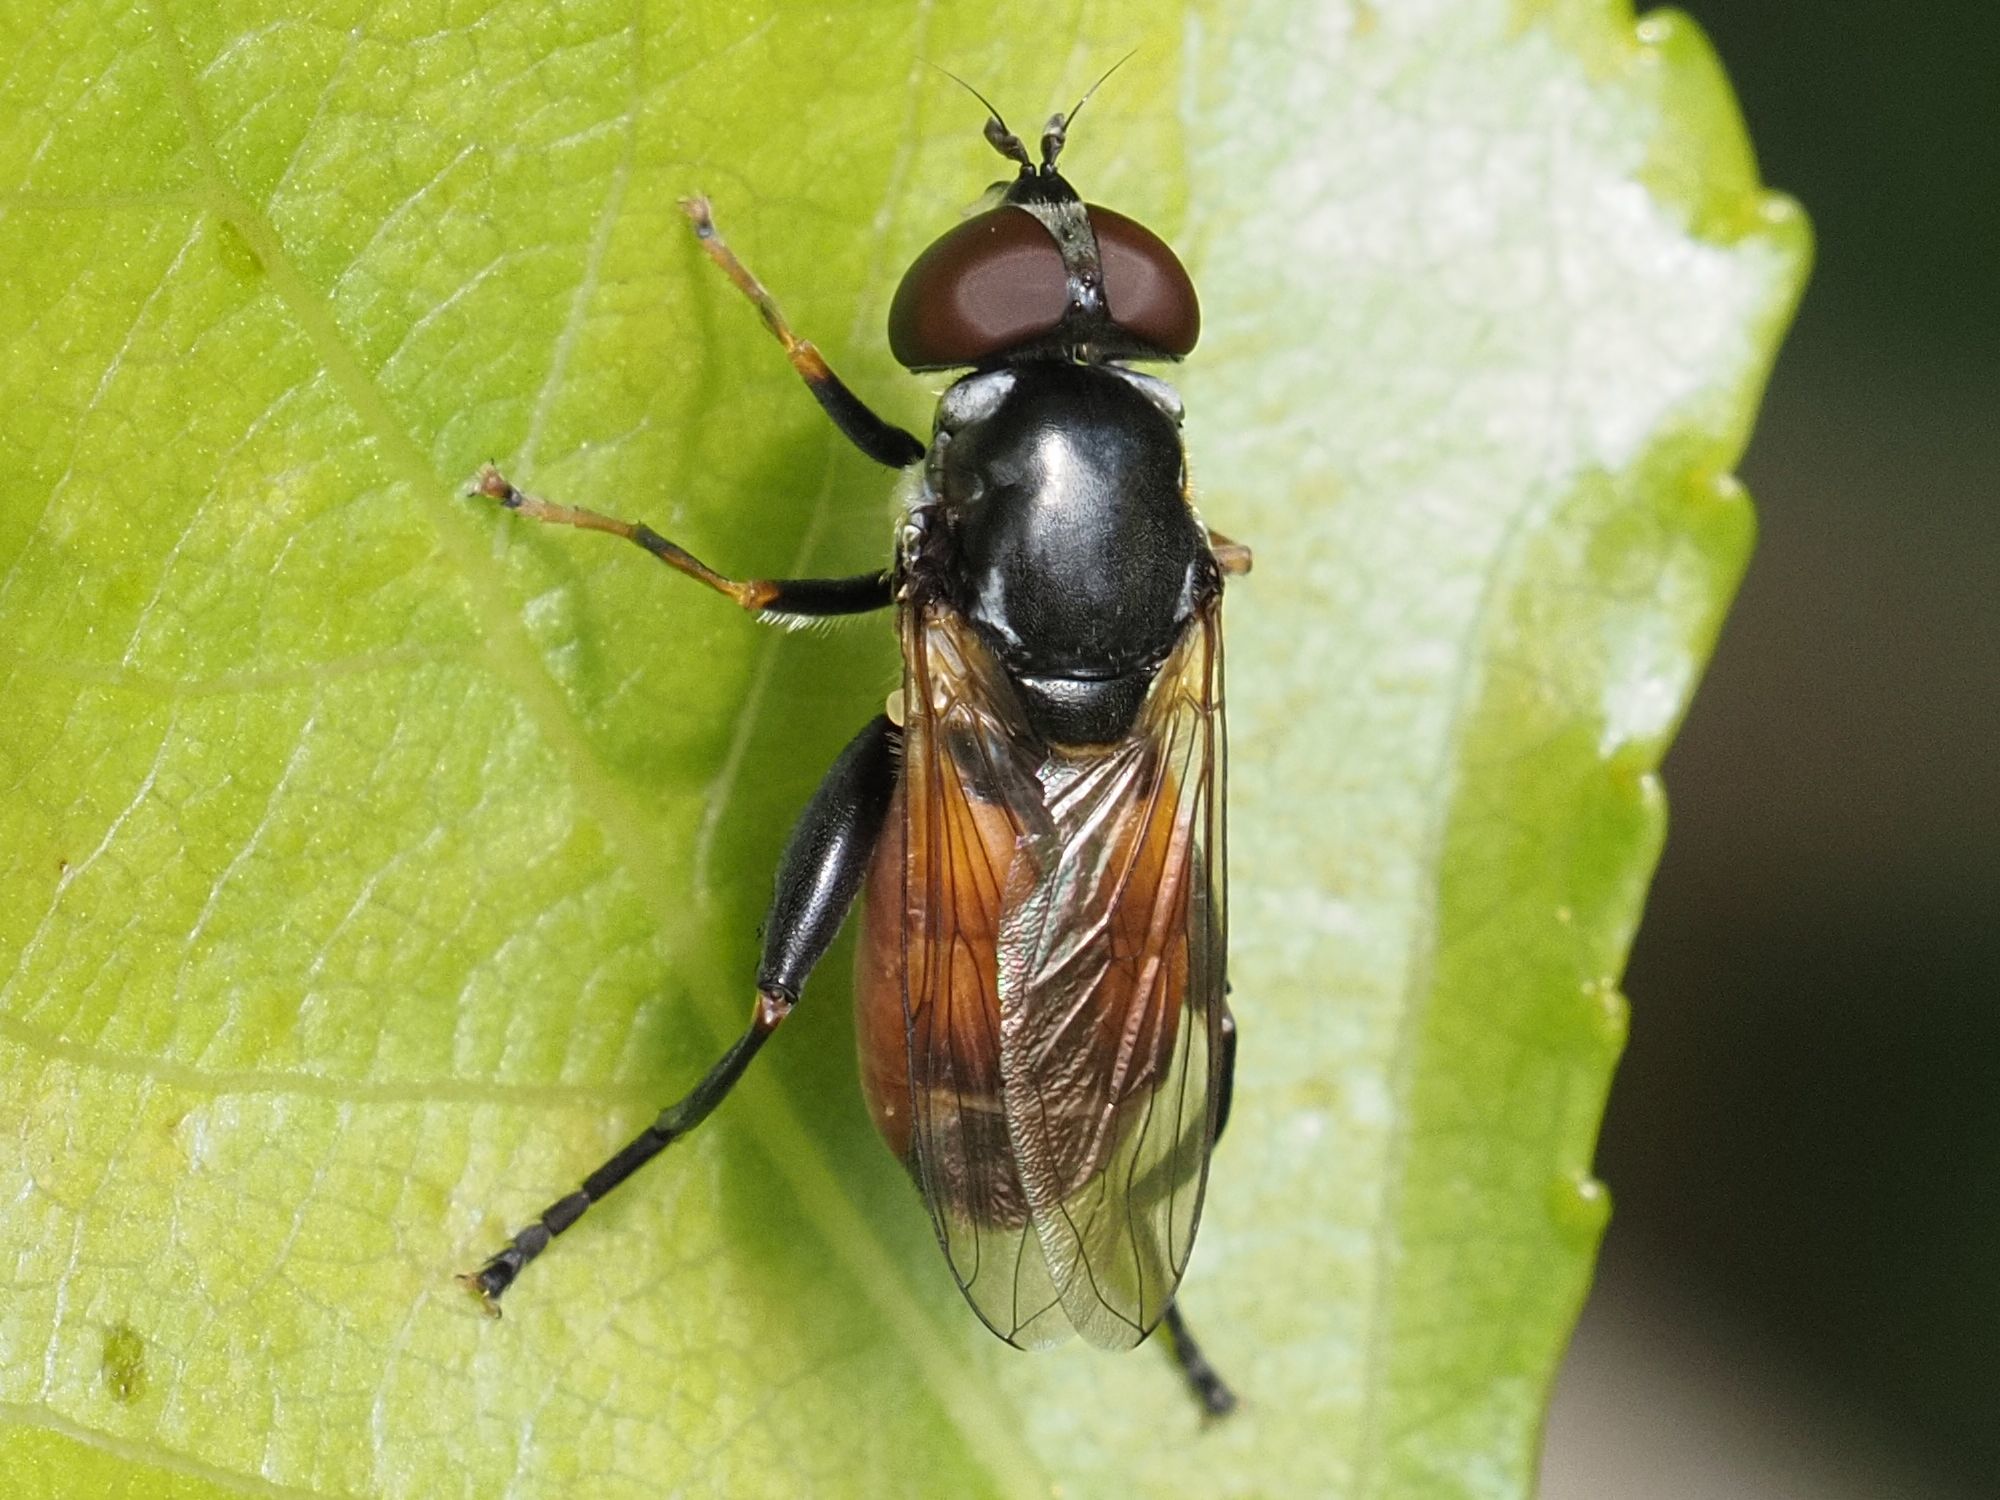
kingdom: Animalia
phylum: Arthropoda
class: Insecta
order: Diptera
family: Syrphidae
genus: Tropidia
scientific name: Tropidia scita
